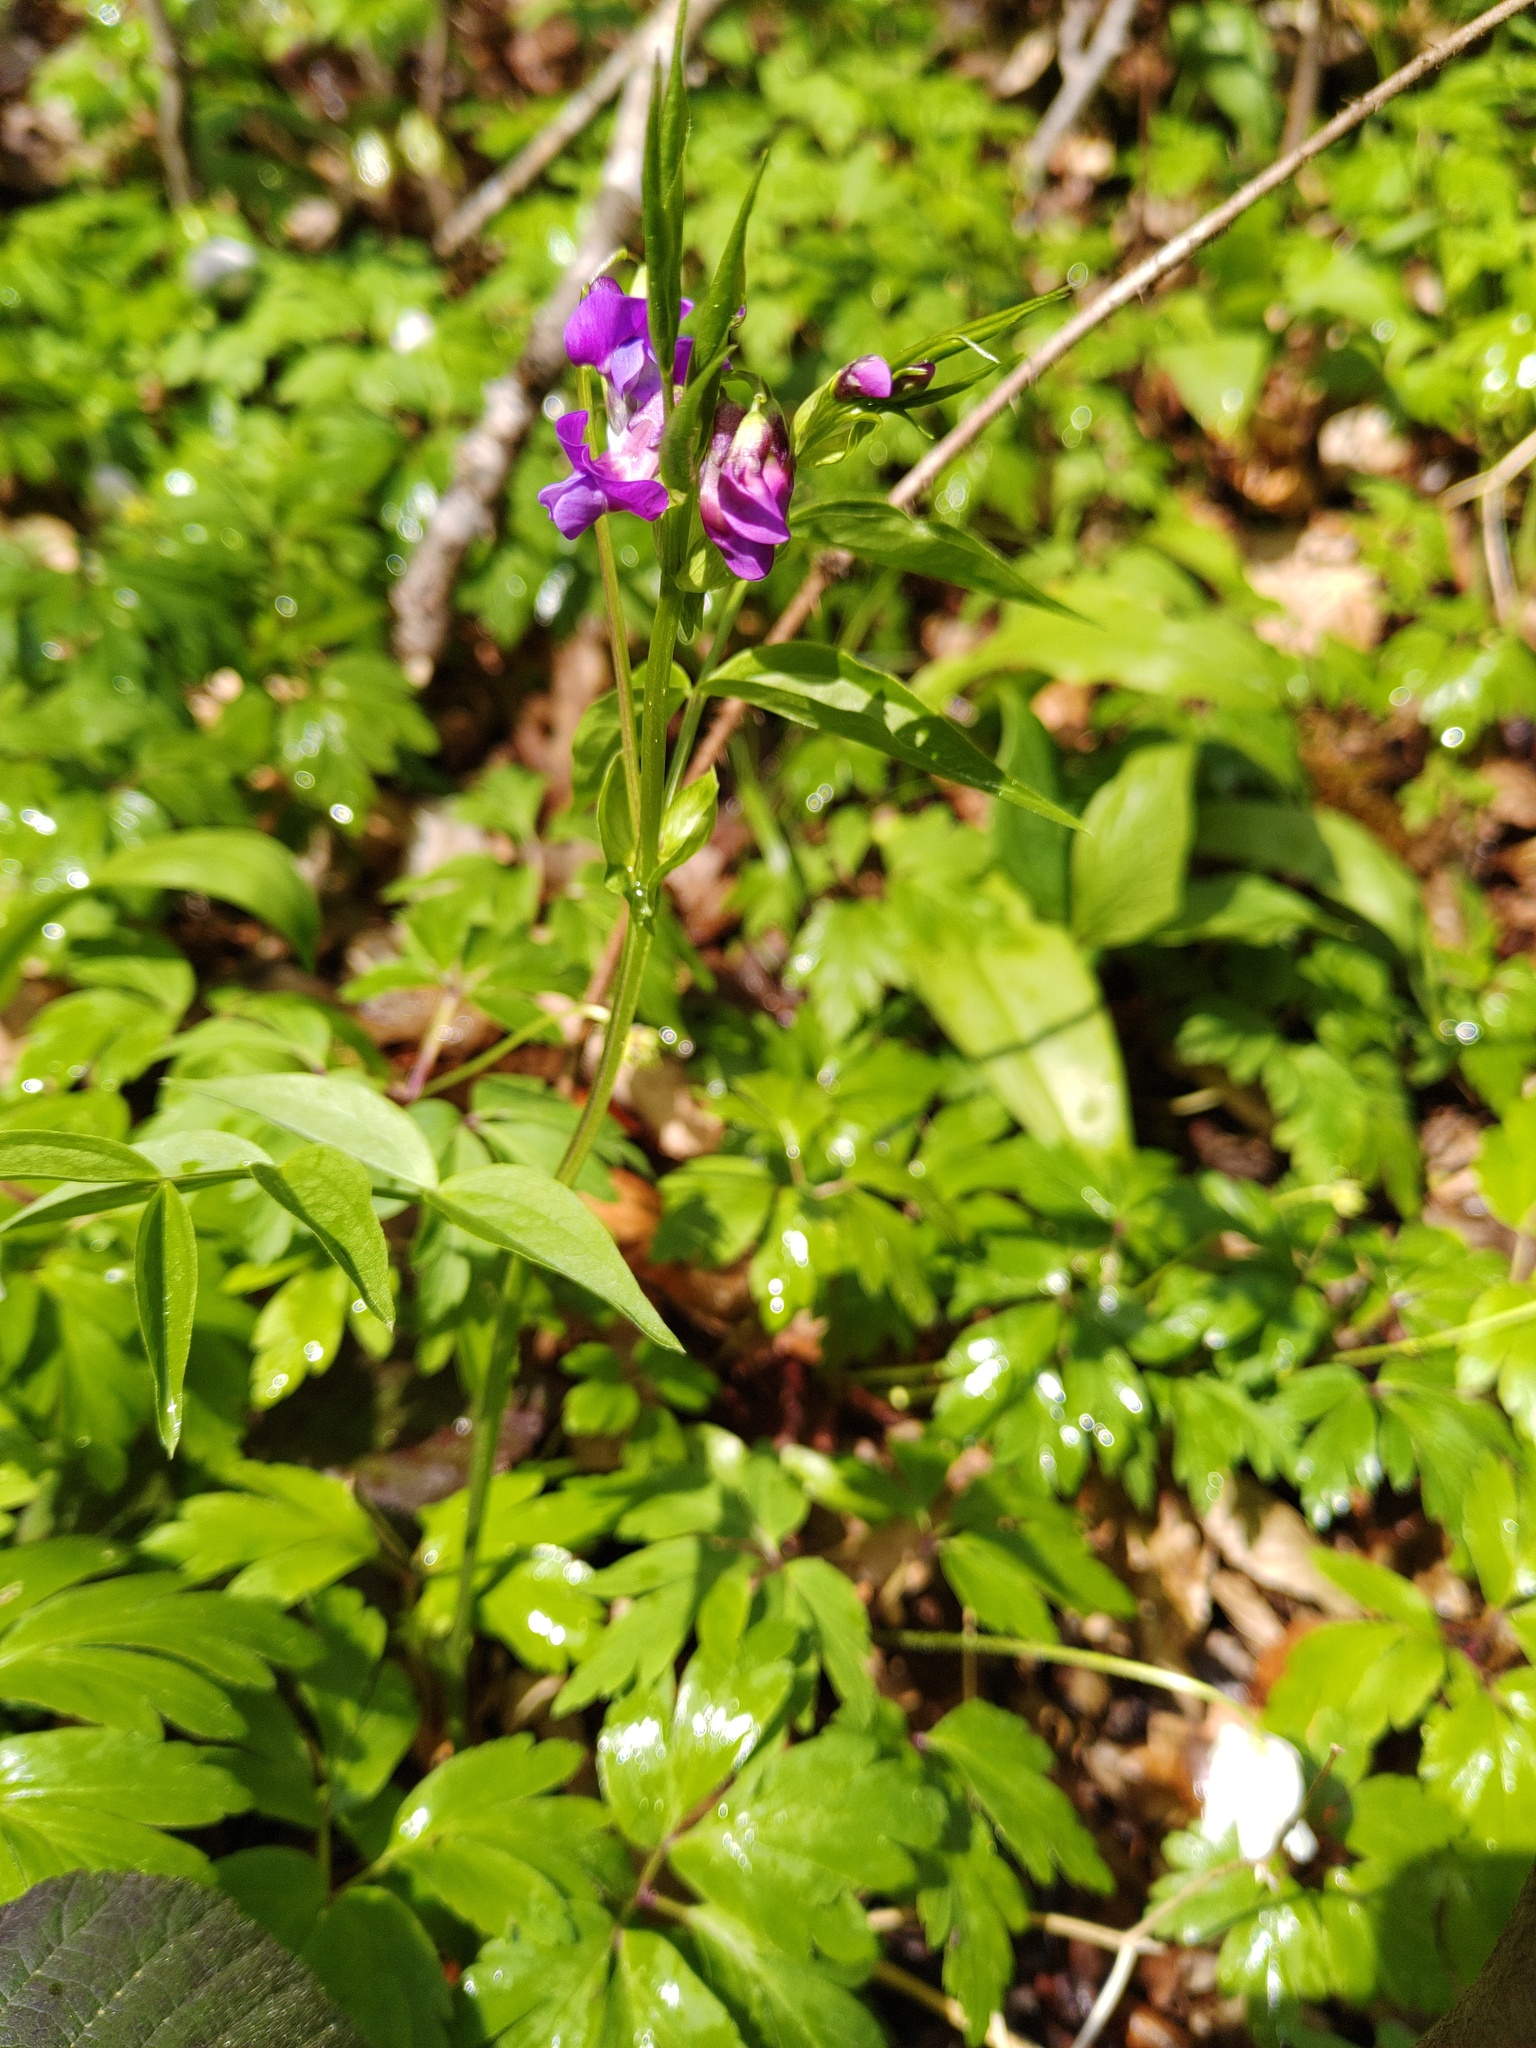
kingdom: Plantae
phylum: Tracheophyta
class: Magnoliopsida
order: Fabales
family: Fabaceae
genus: Lathyrus
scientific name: Lathyrus vernus
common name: Spring pea
